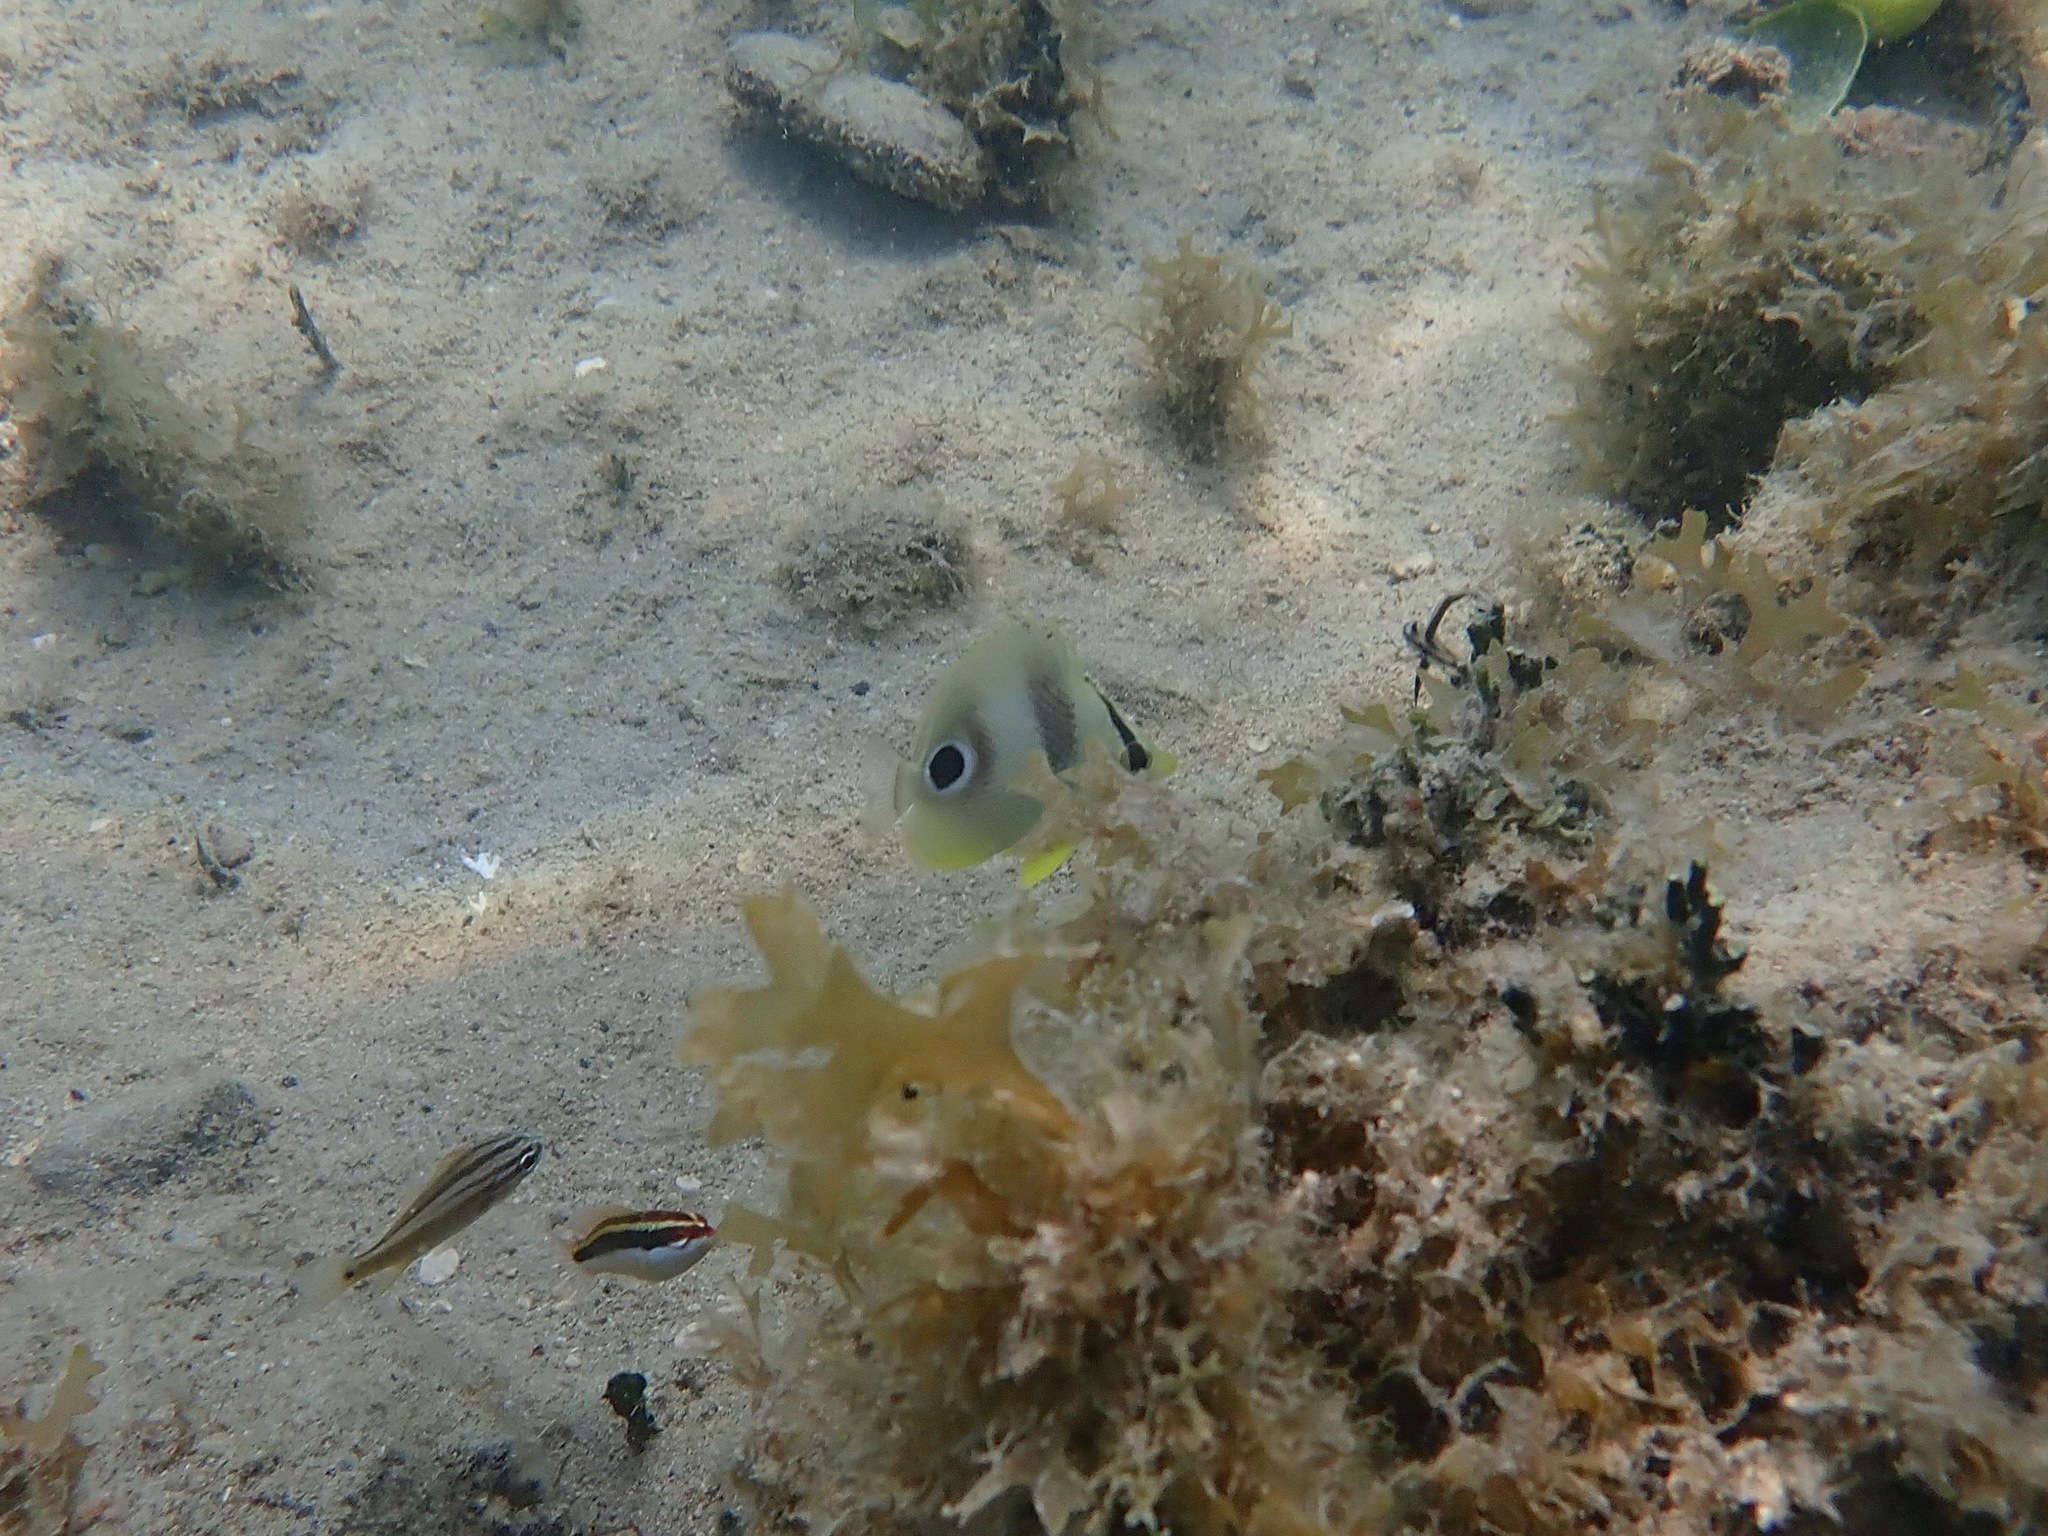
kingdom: Animalia
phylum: Chordata
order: Perciformes
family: Chaetodontidae
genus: Chaetodon
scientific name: Chaetodon capistratus
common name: Kete
